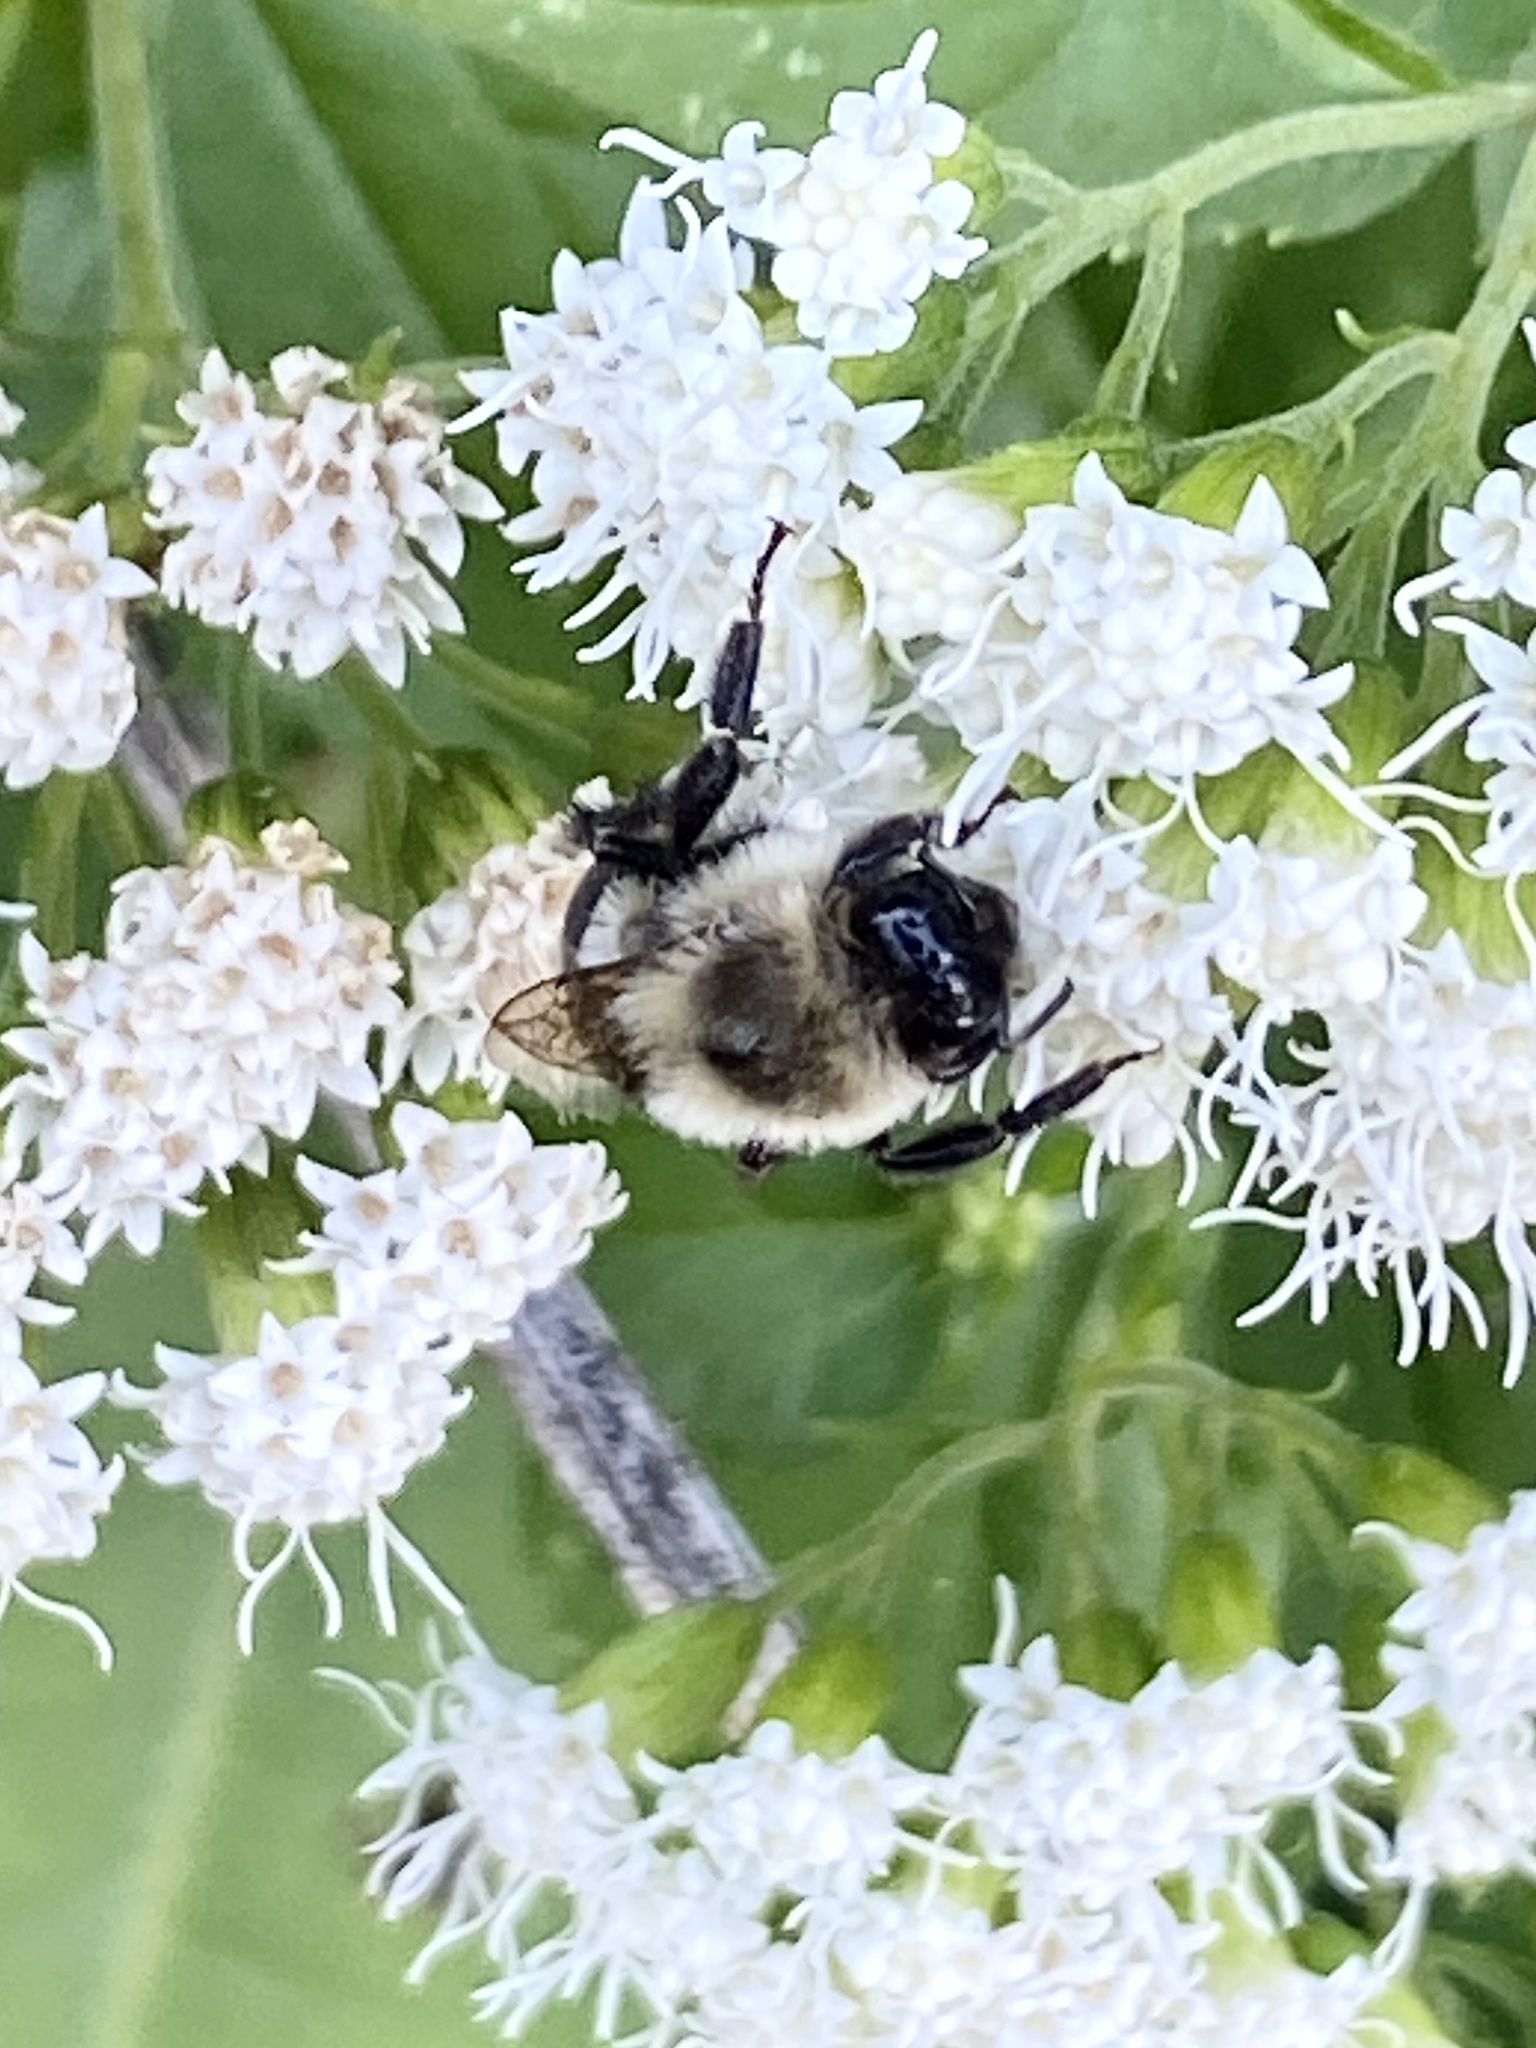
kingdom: Animalia
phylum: Arthropoda
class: Insecta
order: Hymenoptera
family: Apidae
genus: Bombus
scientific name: Bombus impatiens
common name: Common eastern bumble bee
